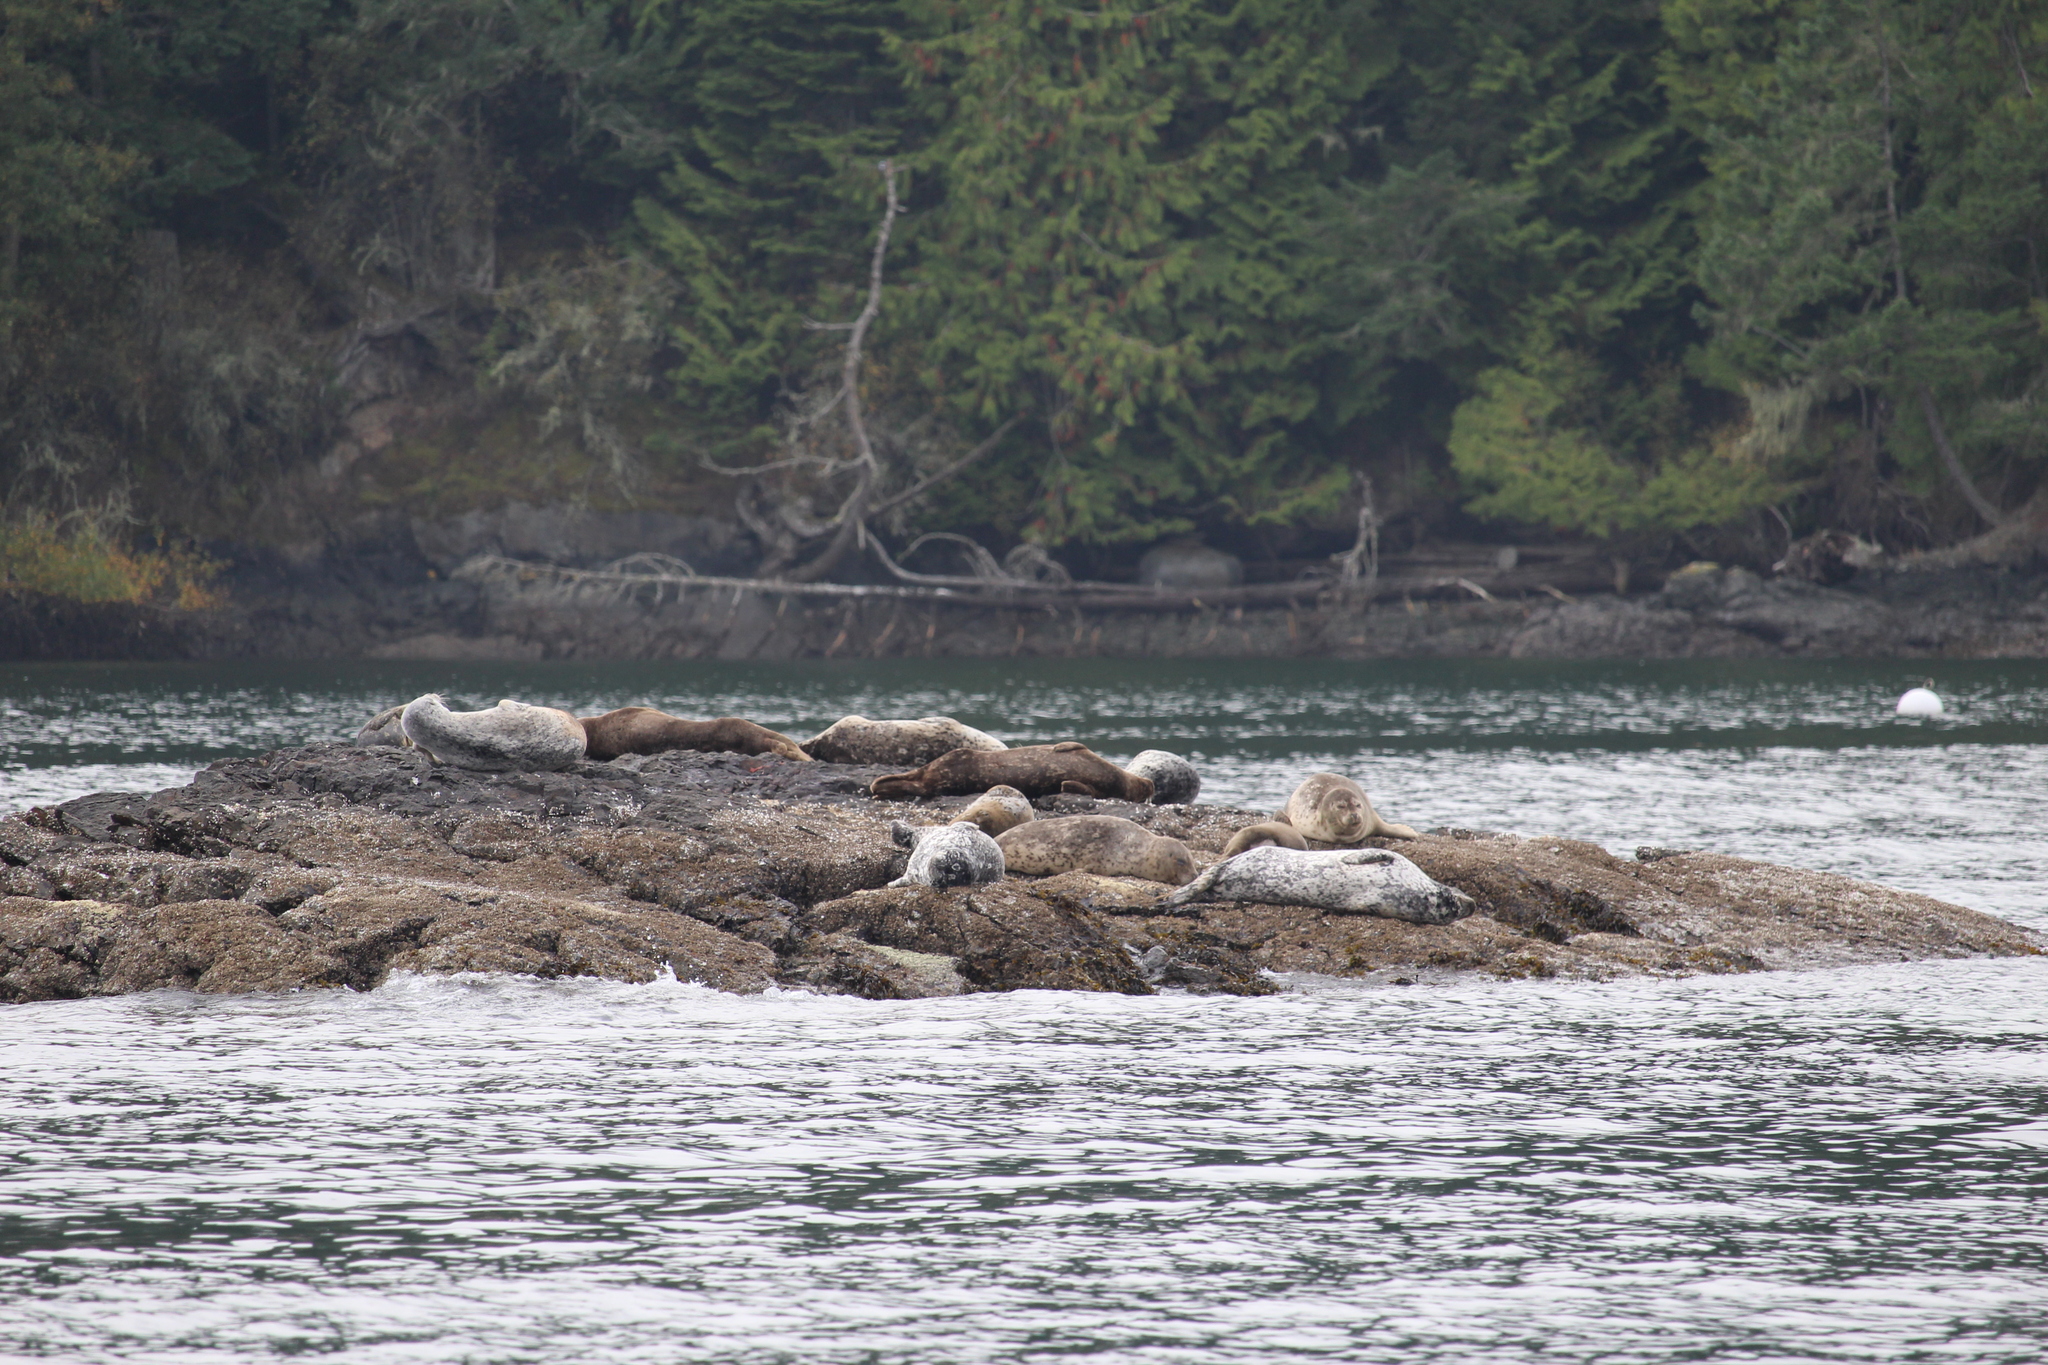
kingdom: Animalia
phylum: Chordata
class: Mammalia
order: Carnivora
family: Phocidae
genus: Phoca
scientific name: Phoca vitulina
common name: Harbor seal
